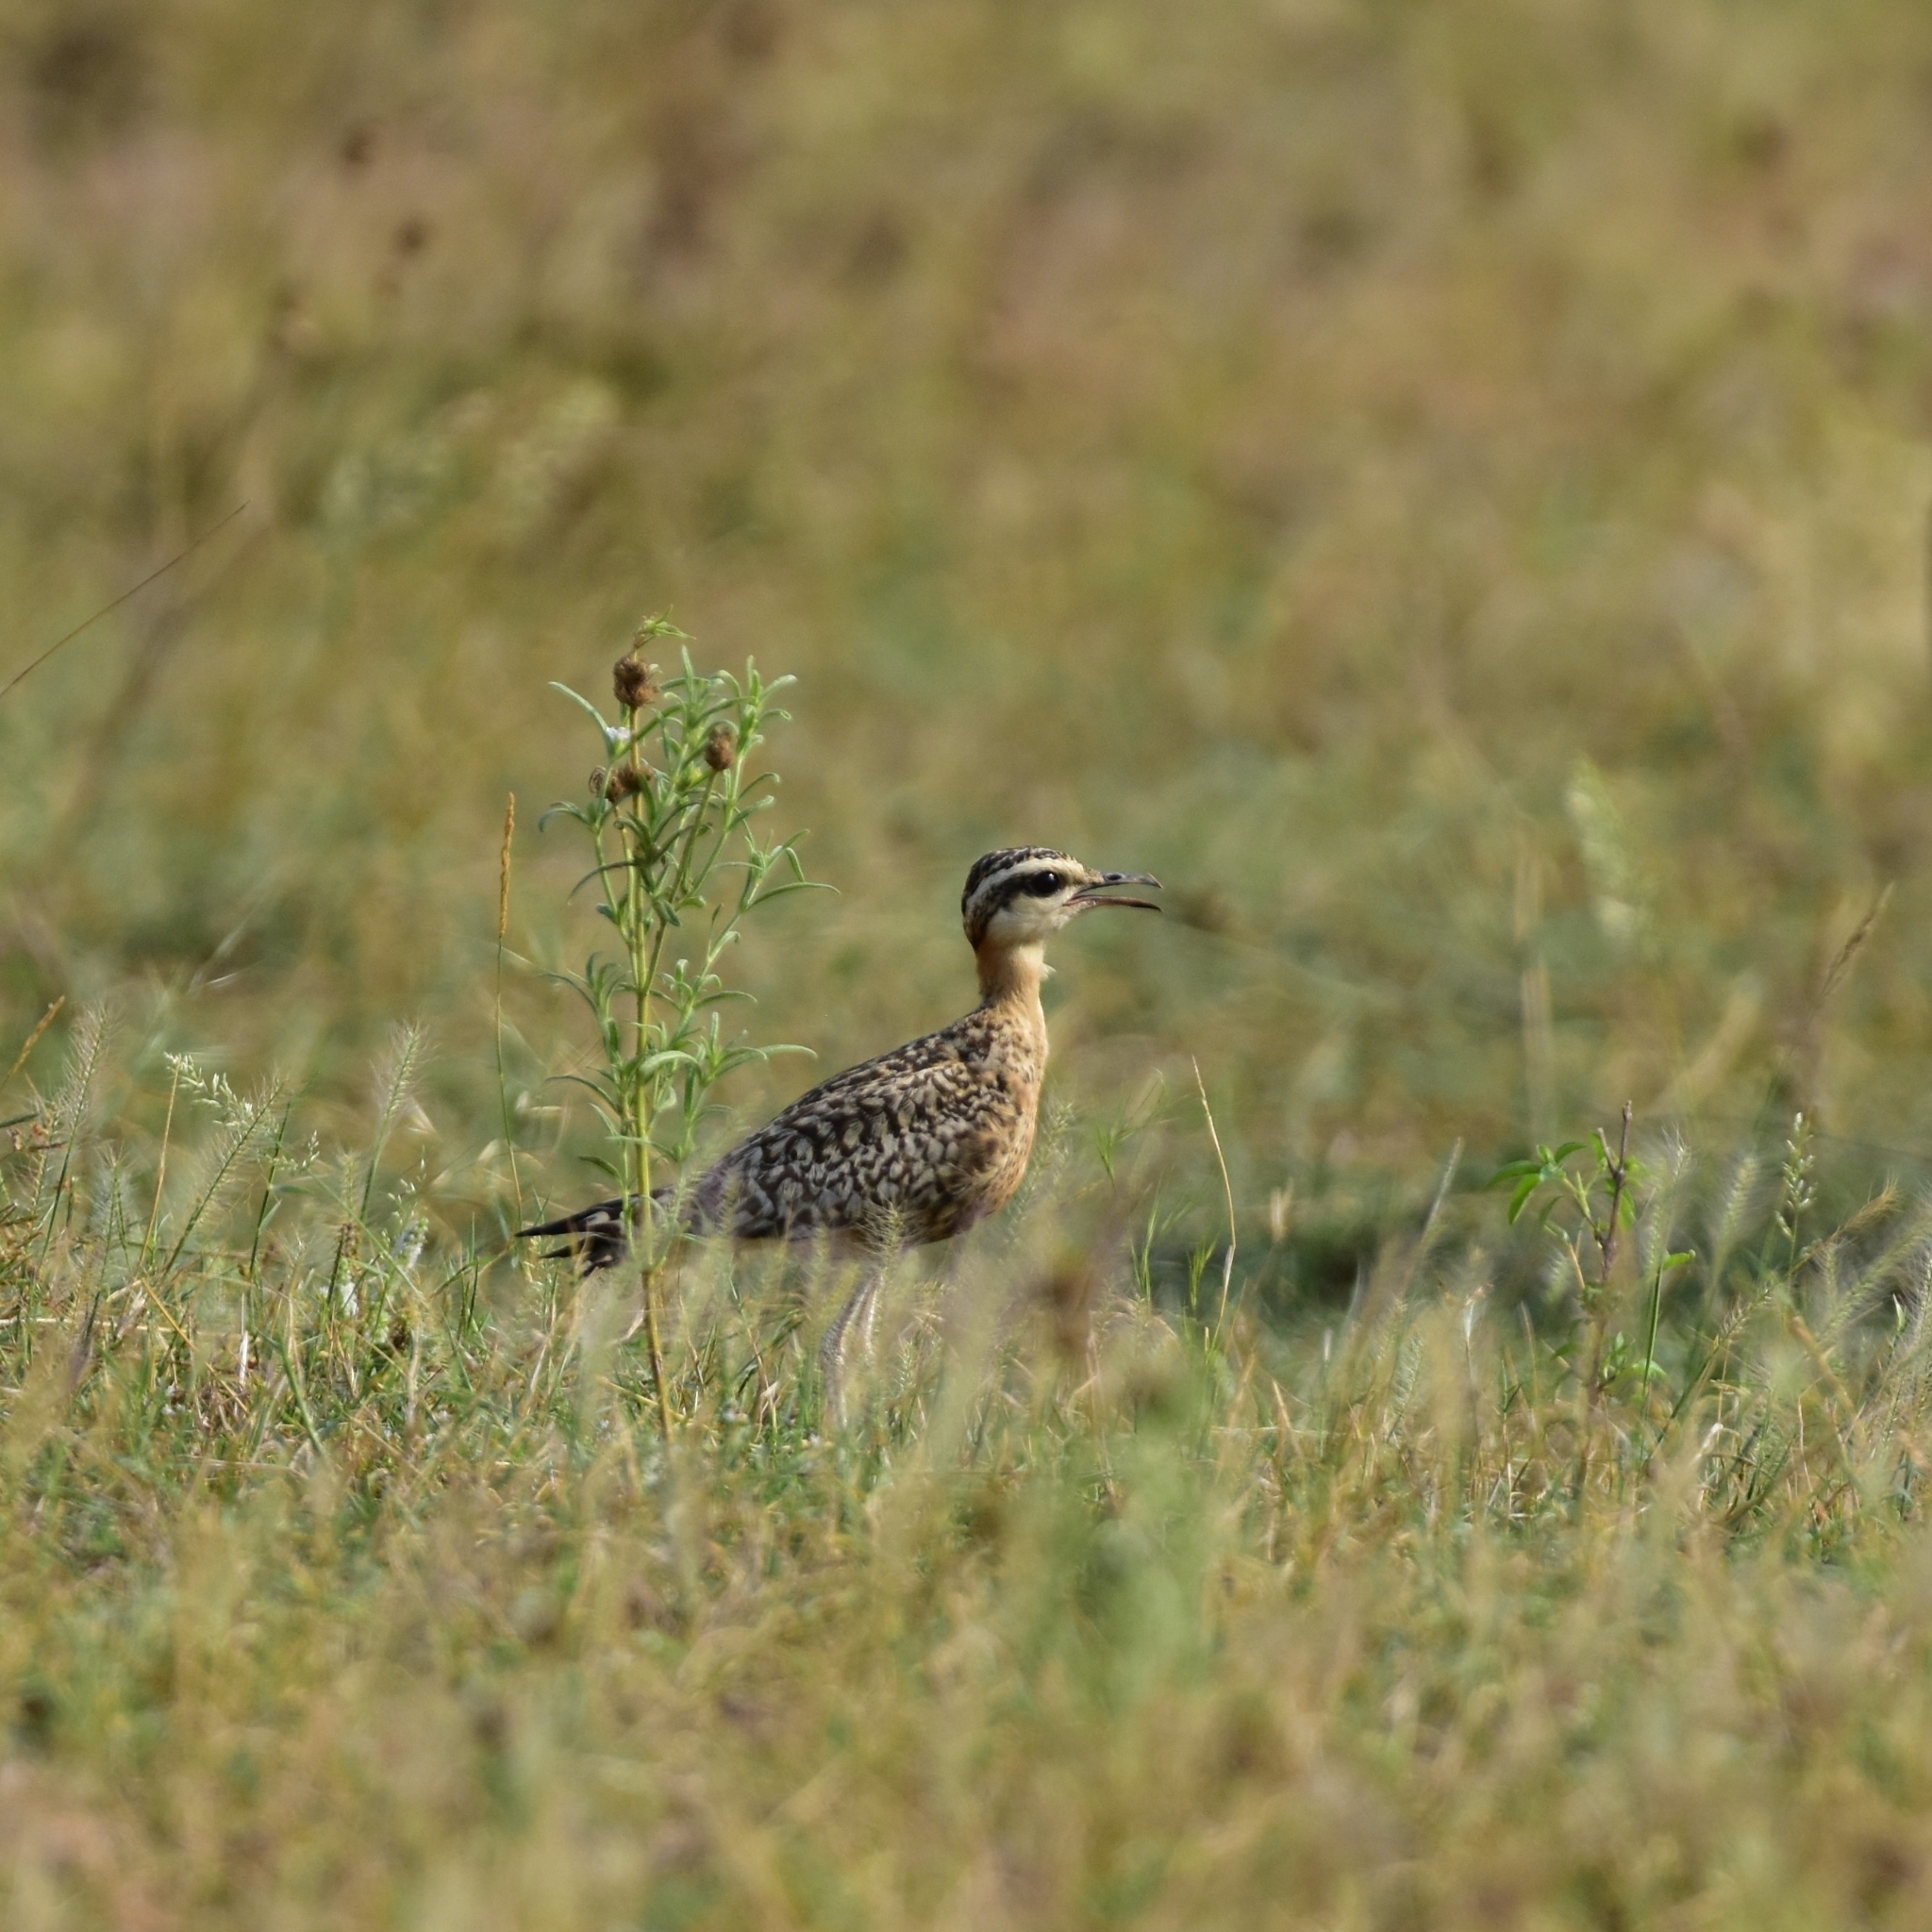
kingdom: Animalia
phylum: Chordata
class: Aves
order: Charadriiformes
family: Glareolidae
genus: Cursorius
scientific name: Cursorius coromandelicus
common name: Indian courser
